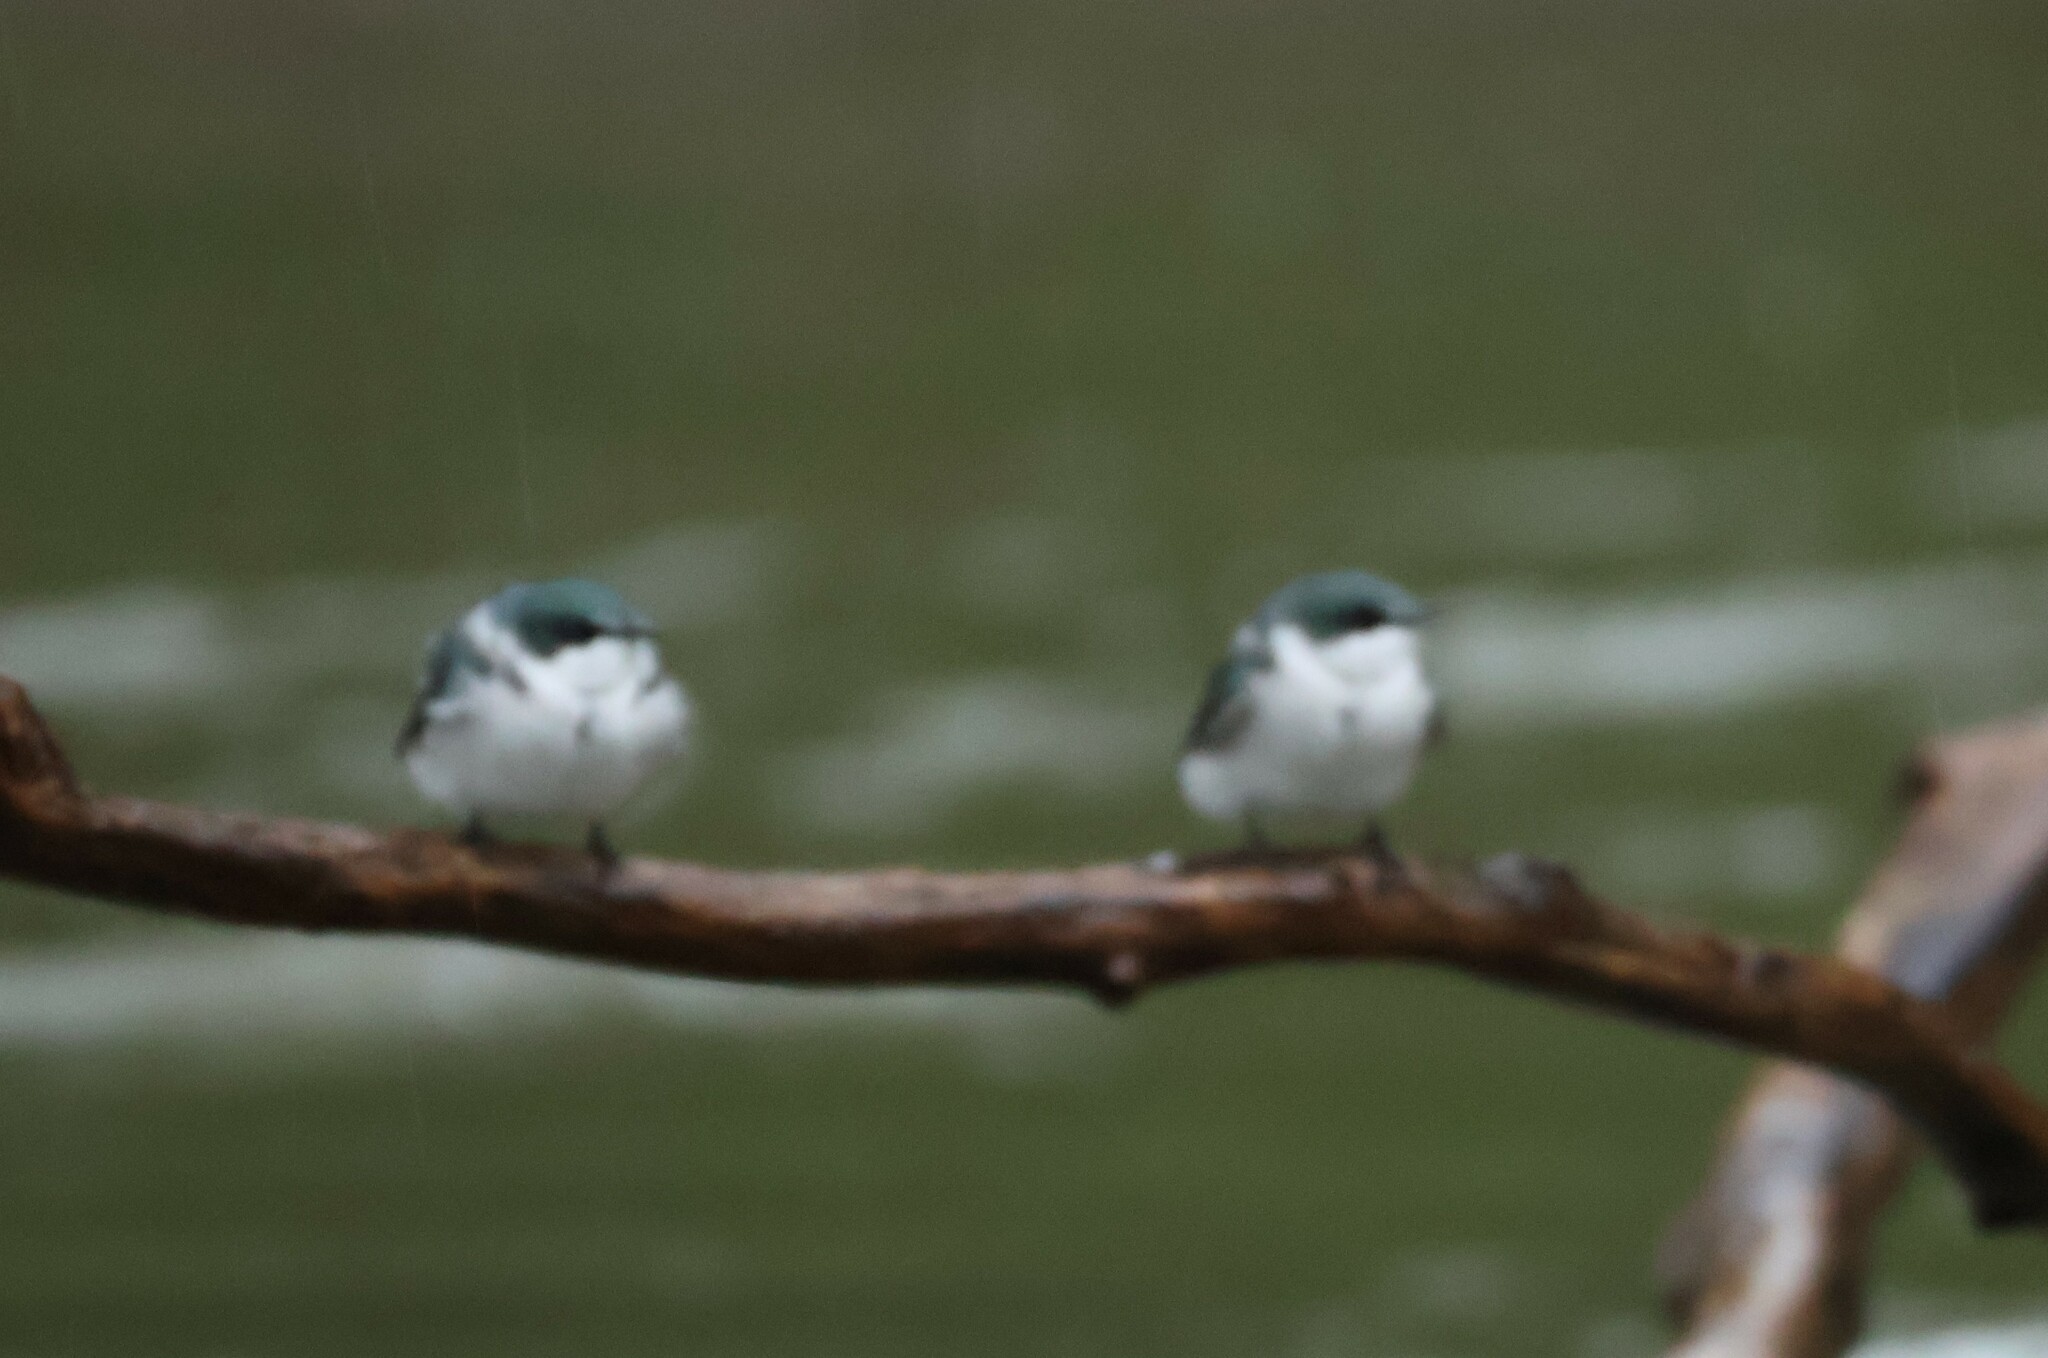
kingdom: Animalia
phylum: Chordata
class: Aves
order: Passeriformes
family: Hirundinidae
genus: Tachycineta
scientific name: Tachycineta albilinea
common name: Mangrove swallow
